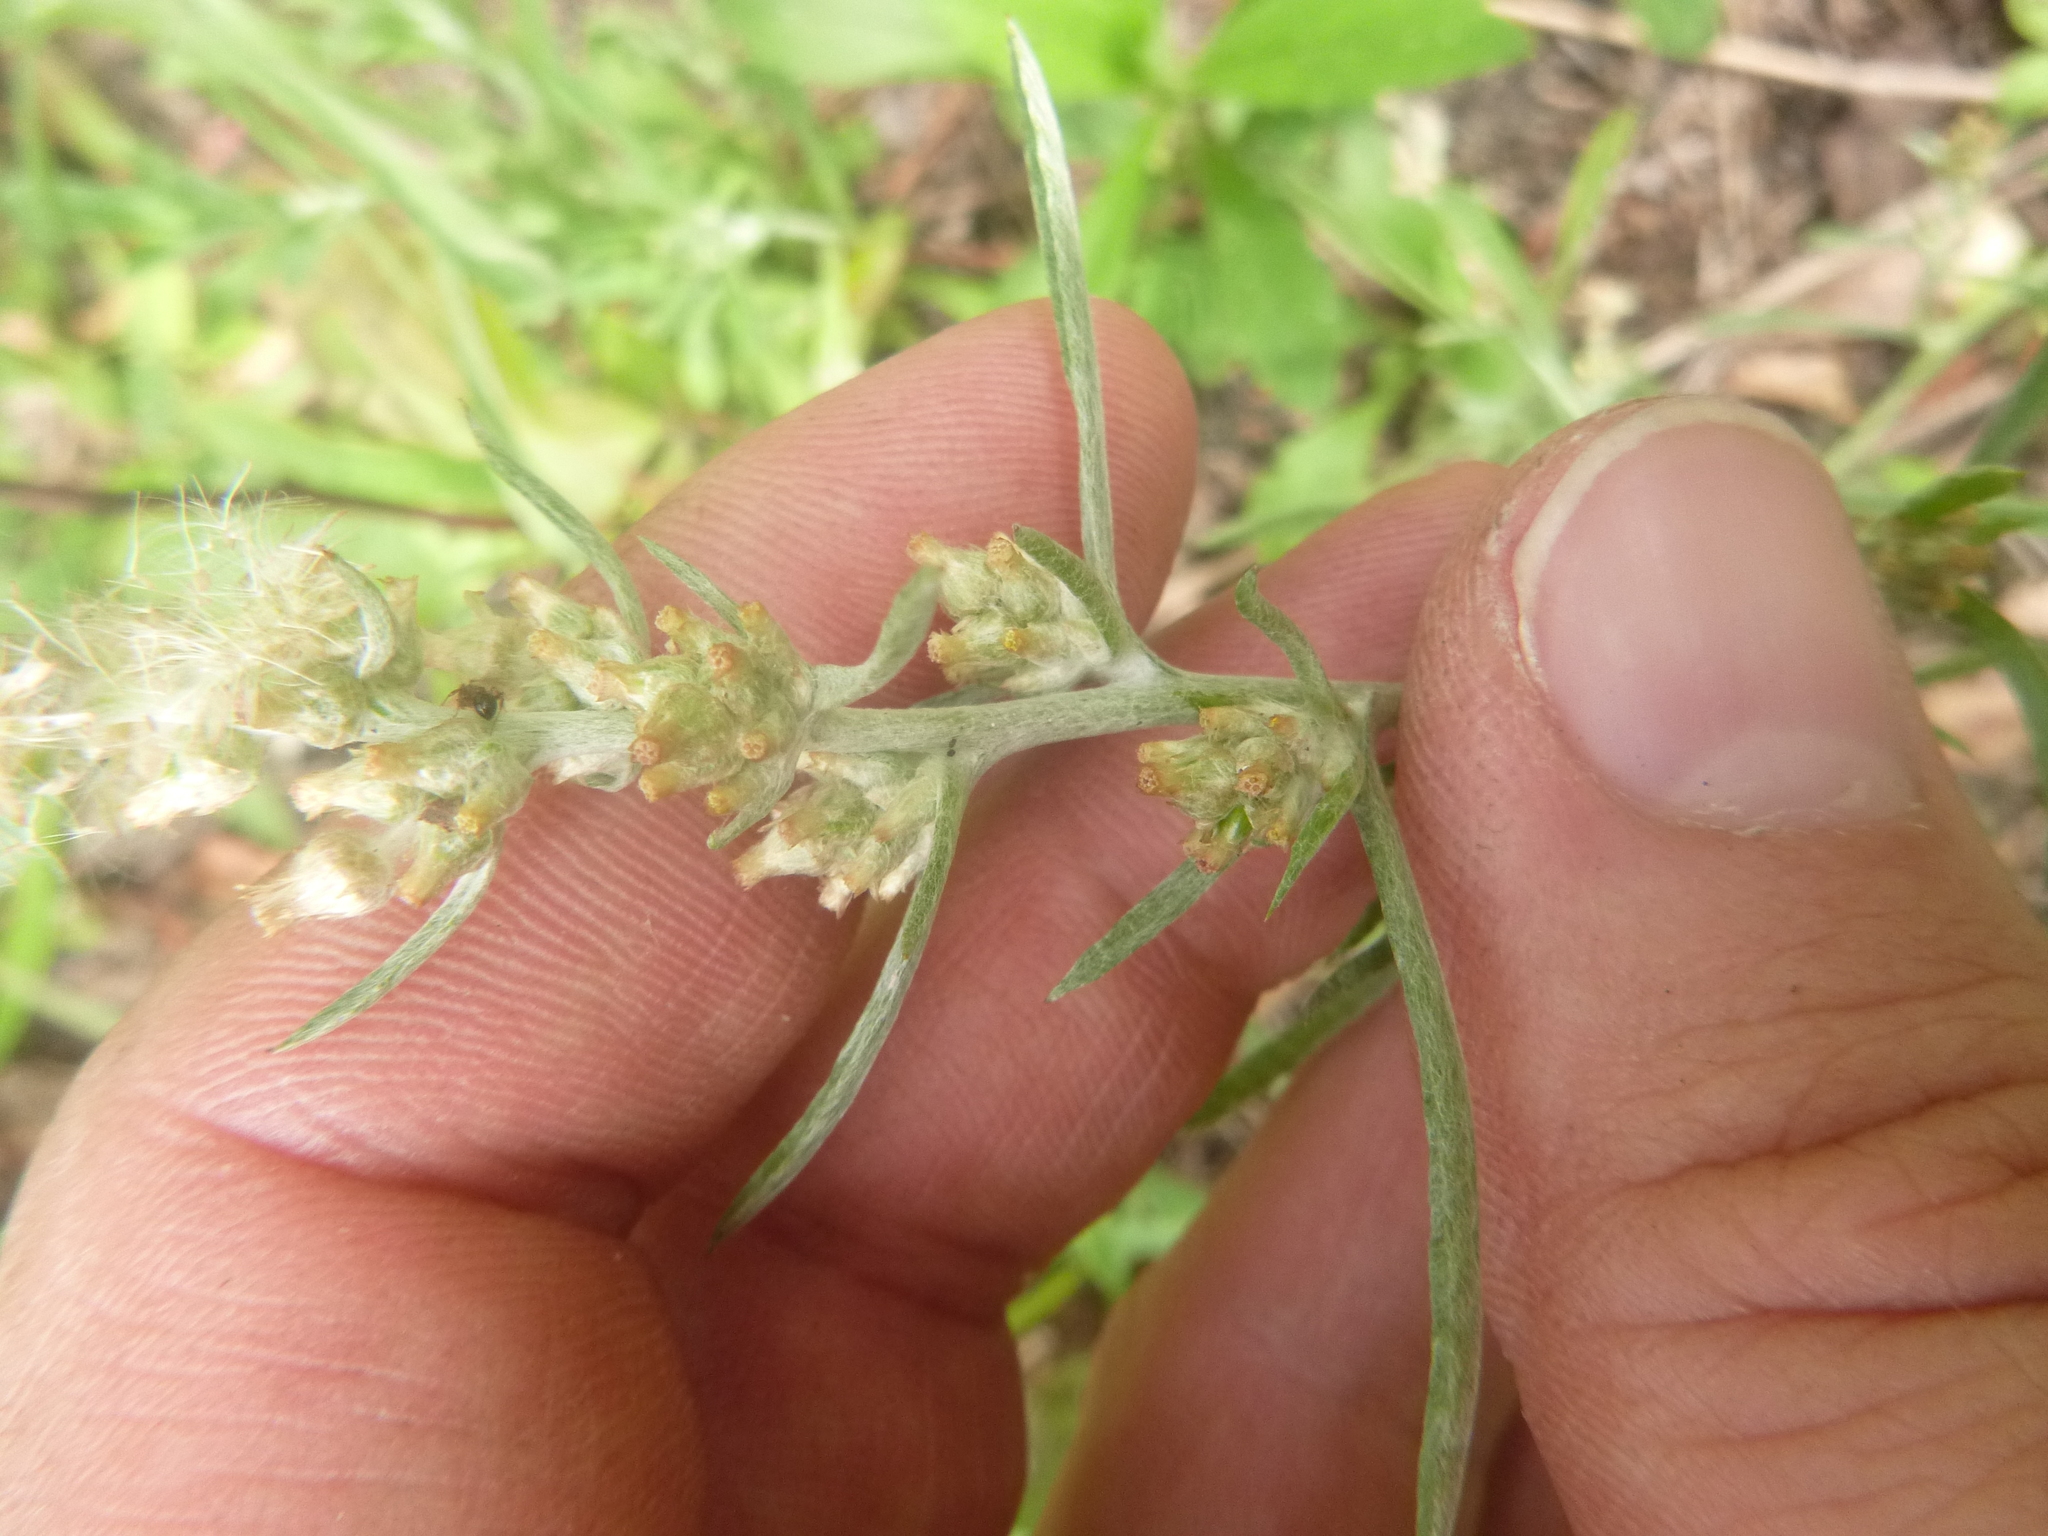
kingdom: Plantae
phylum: Tracheophyta
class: Magnoliopsida
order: Asterales
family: Asteraceae
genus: Gamochaeta
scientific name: Gamochaeta calviceps
